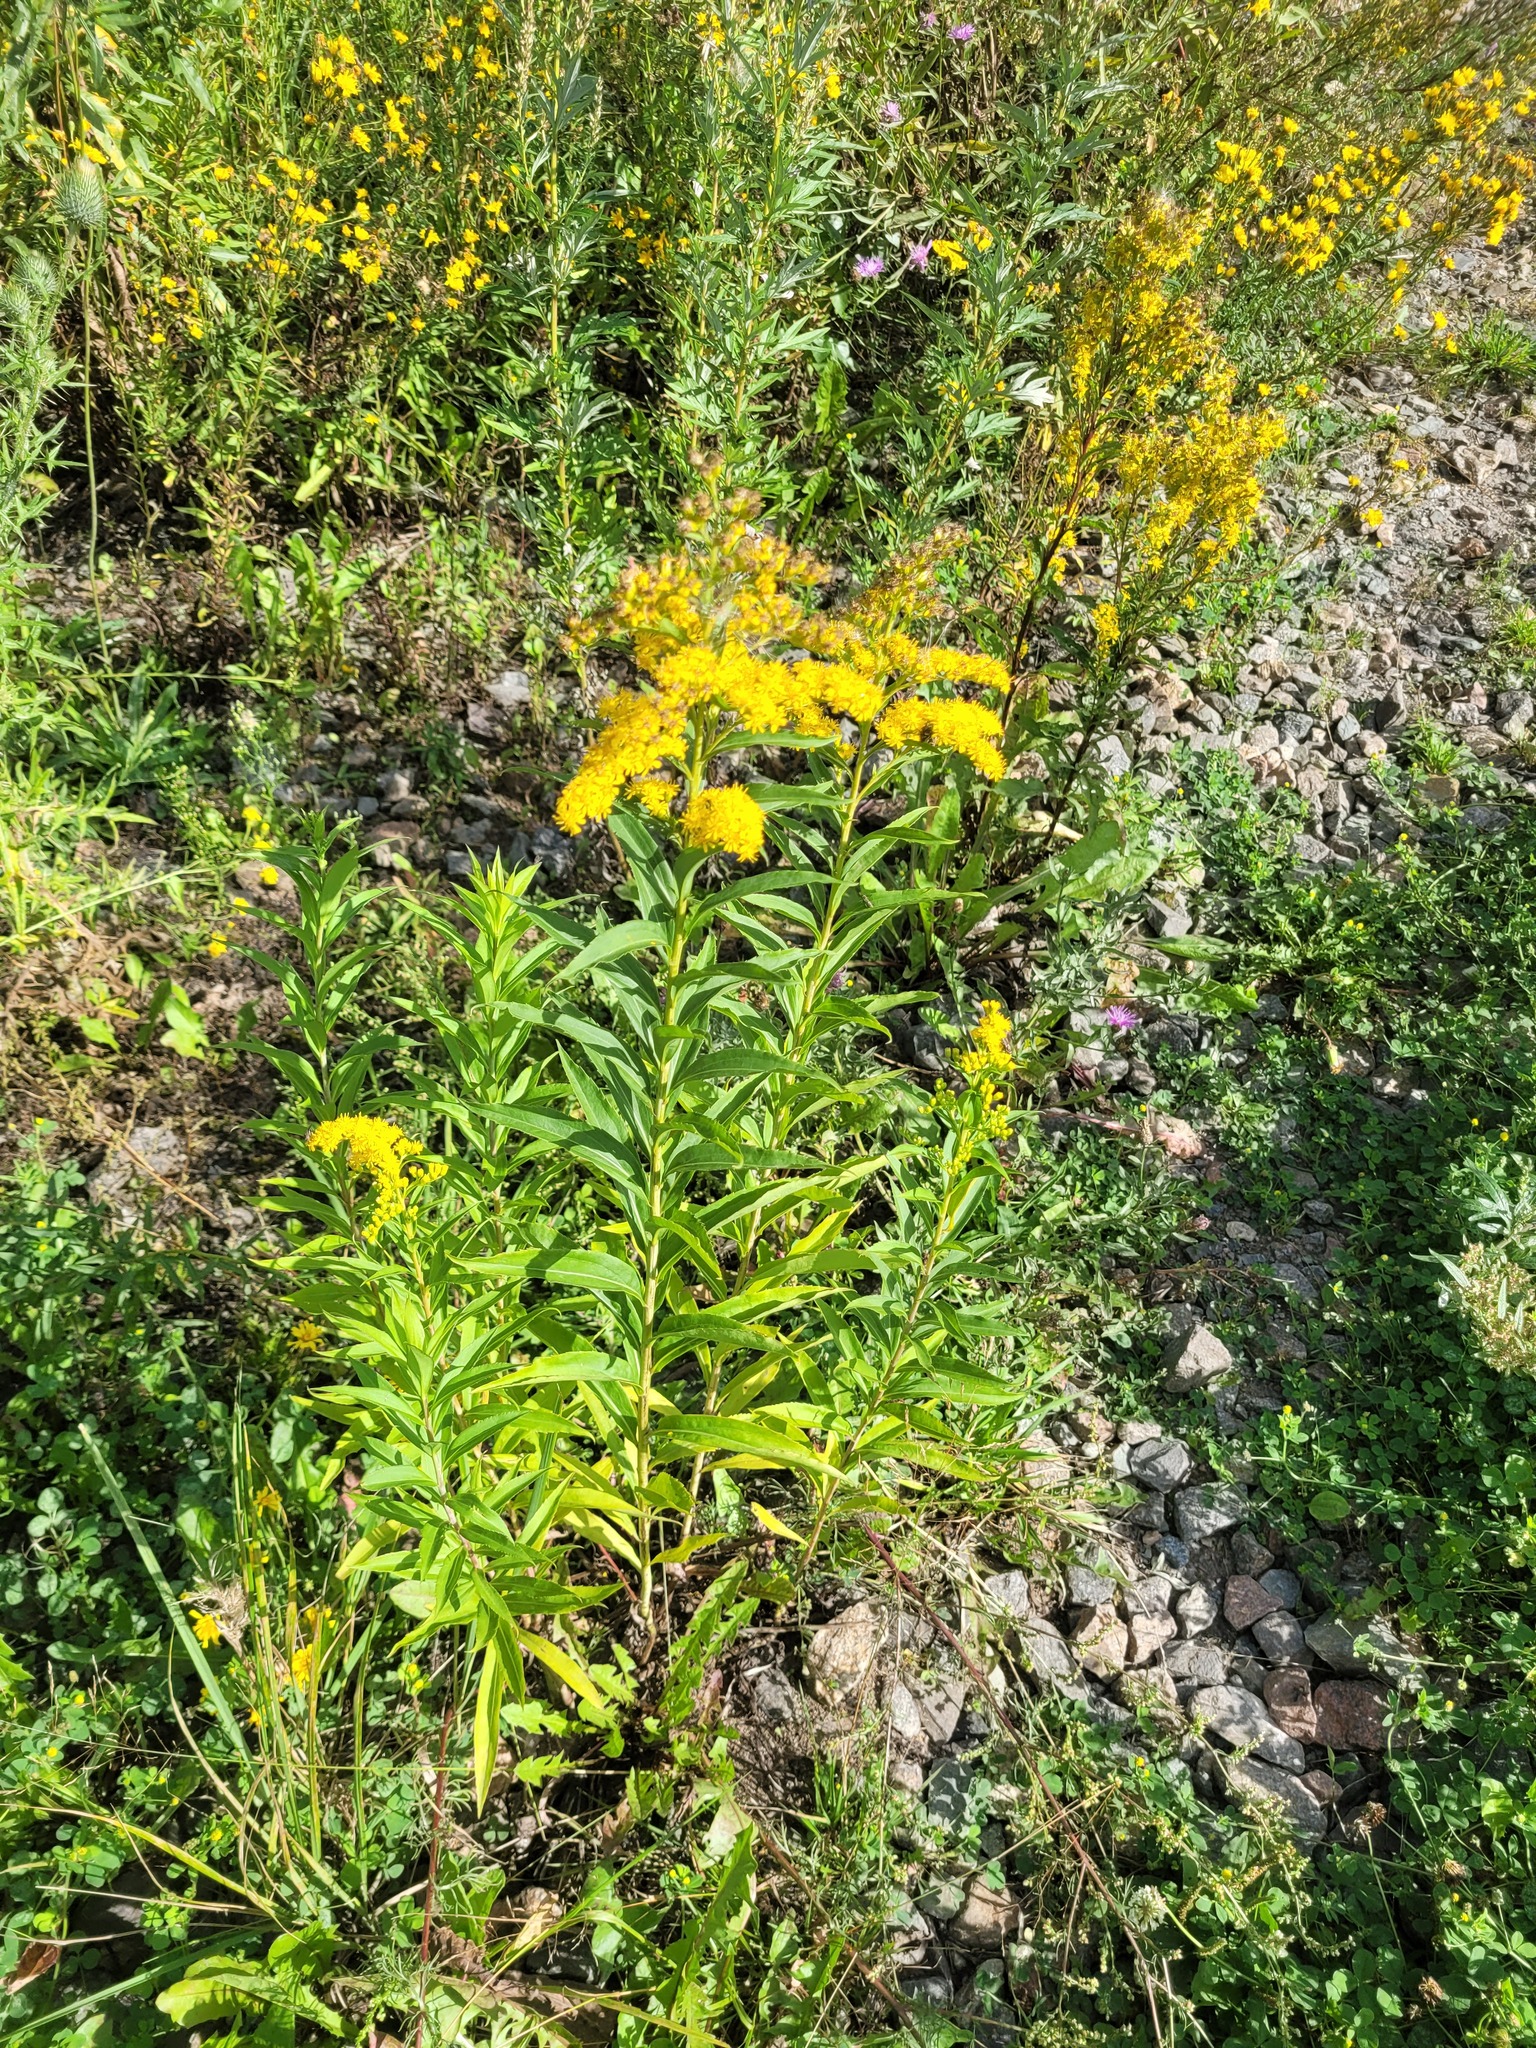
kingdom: Plantae
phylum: Tracheophyta
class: Magnoliopsida
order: Asterales
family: Asteraceae
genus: Solidago
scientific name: Solidago gigantea
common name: Giant goldenrod
